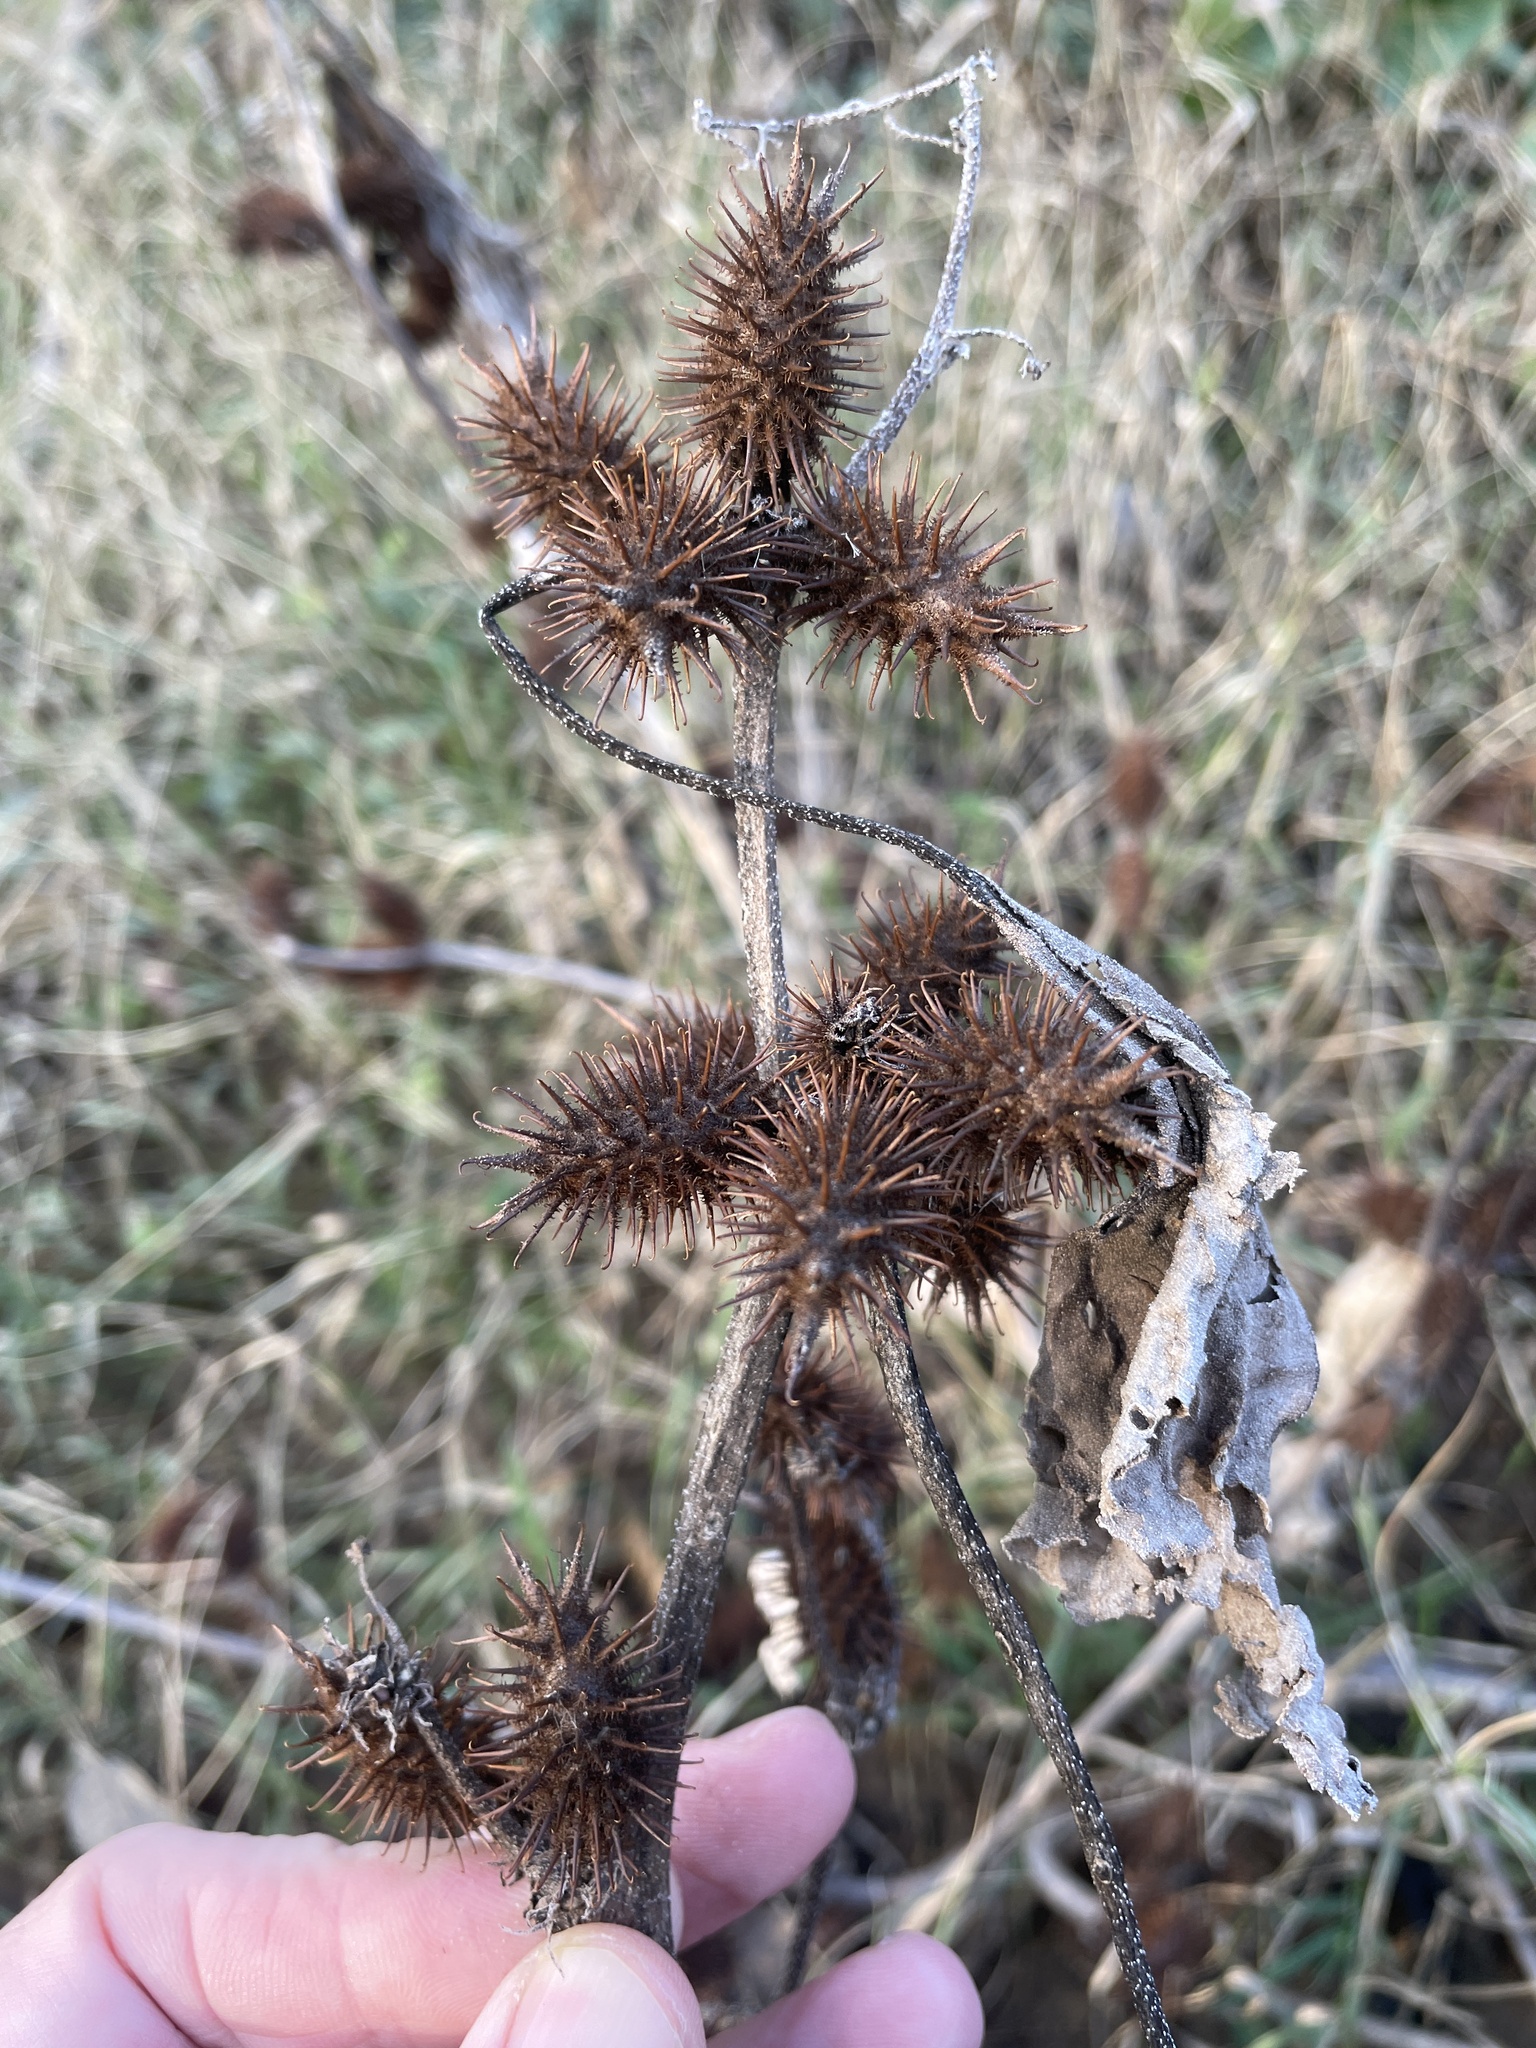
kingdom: Plantae
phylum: Tracheophyta
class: Magnoliopsida
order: Asterales
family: Asteraceae
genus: Xanthium
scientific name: Xanthium strumarium
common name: Rough cocklebur
